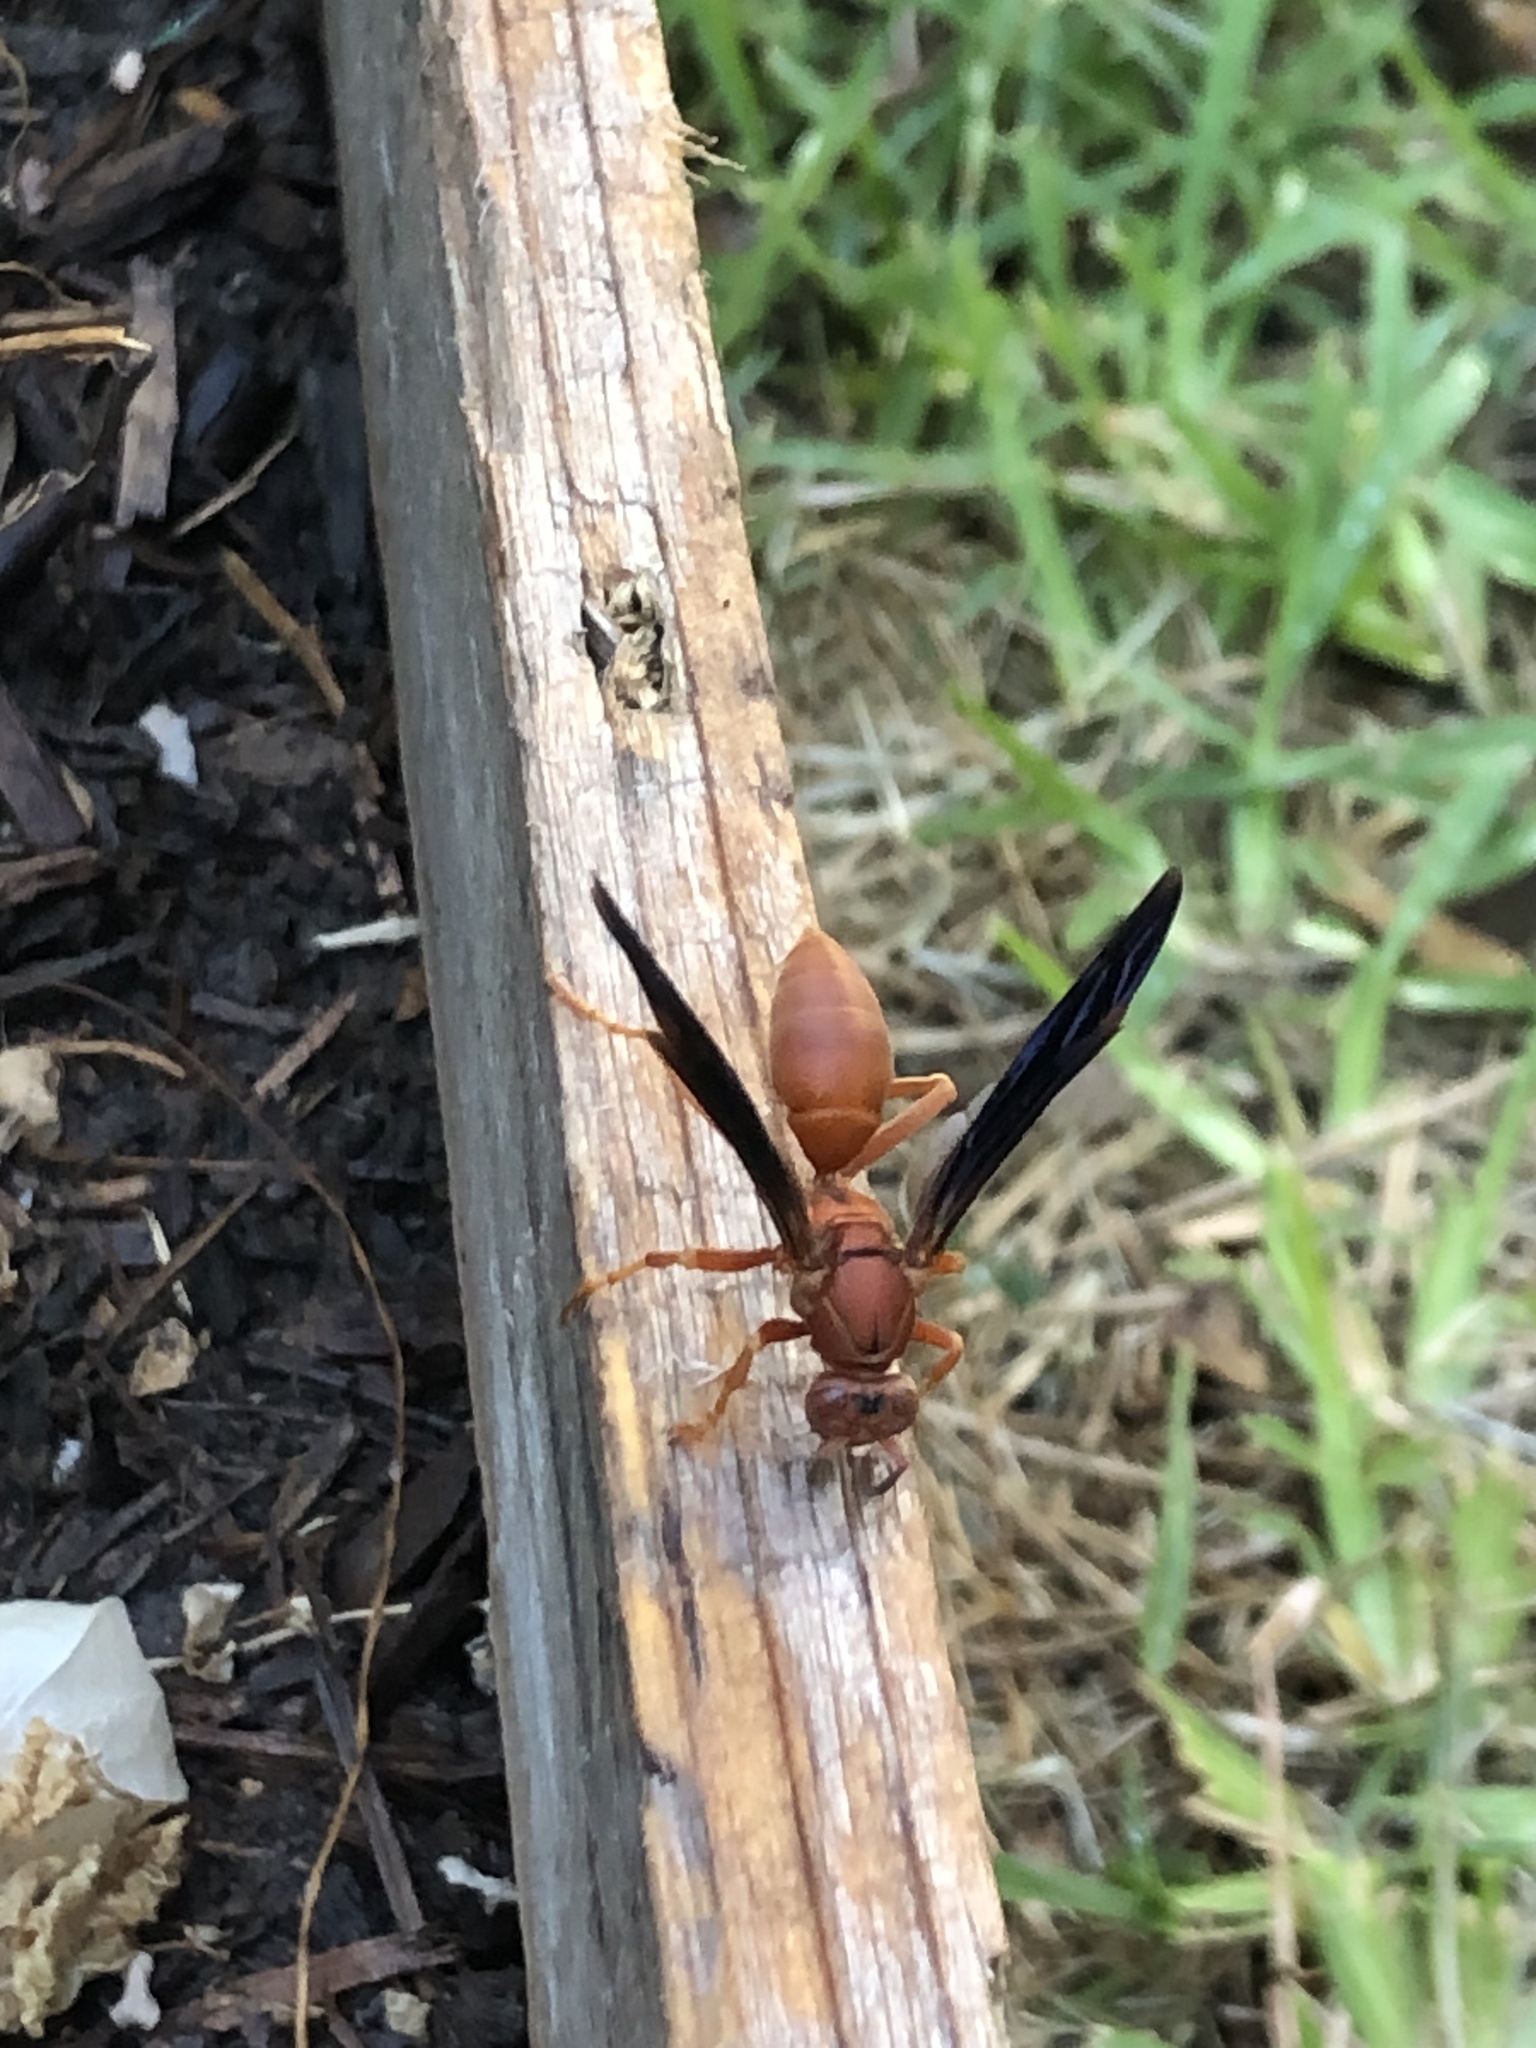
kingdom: Animalia
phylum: Arthropoda
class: Insecta
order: Hymenoptera
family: Vespidae
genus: Fuscopolistes
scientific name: Fuscopolistes
